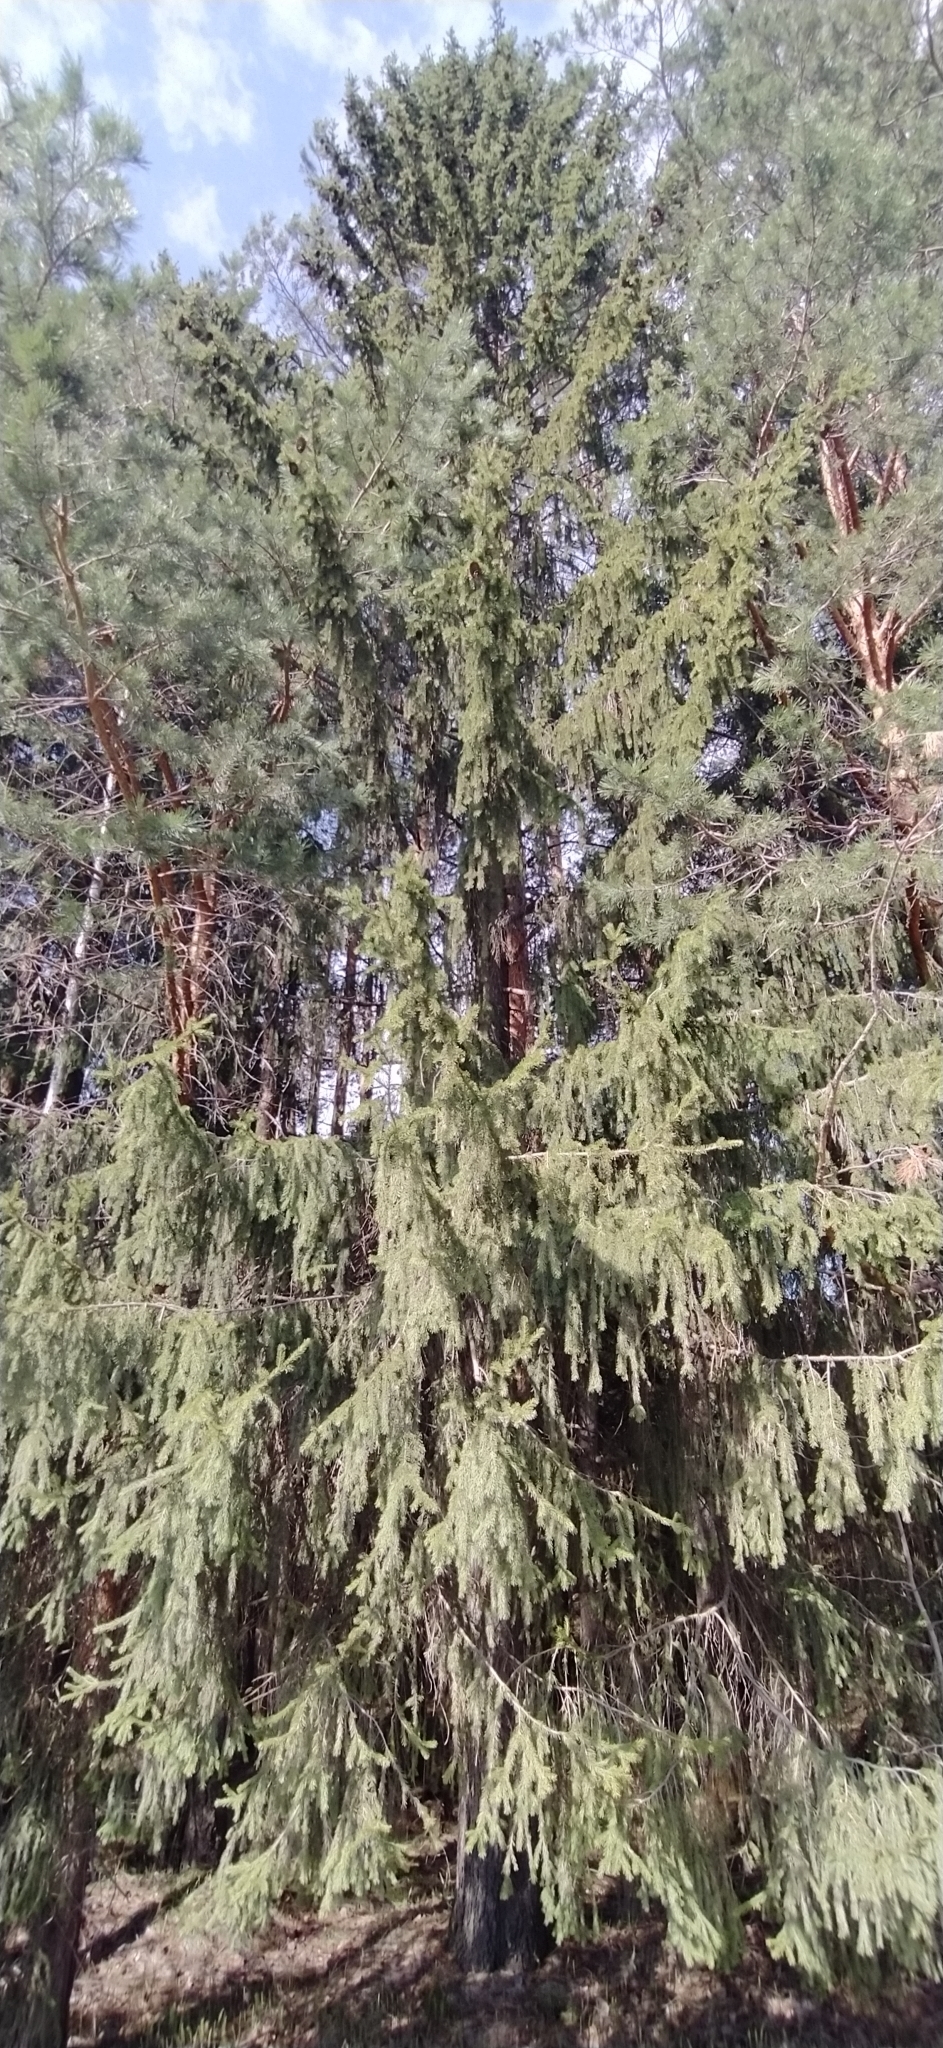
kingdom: Plantae
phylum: Tracheophyta
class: Pinopsida
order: Pinales
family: Pinaceae
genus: Picea
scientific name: Picea obovata
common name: Siberian spruce
